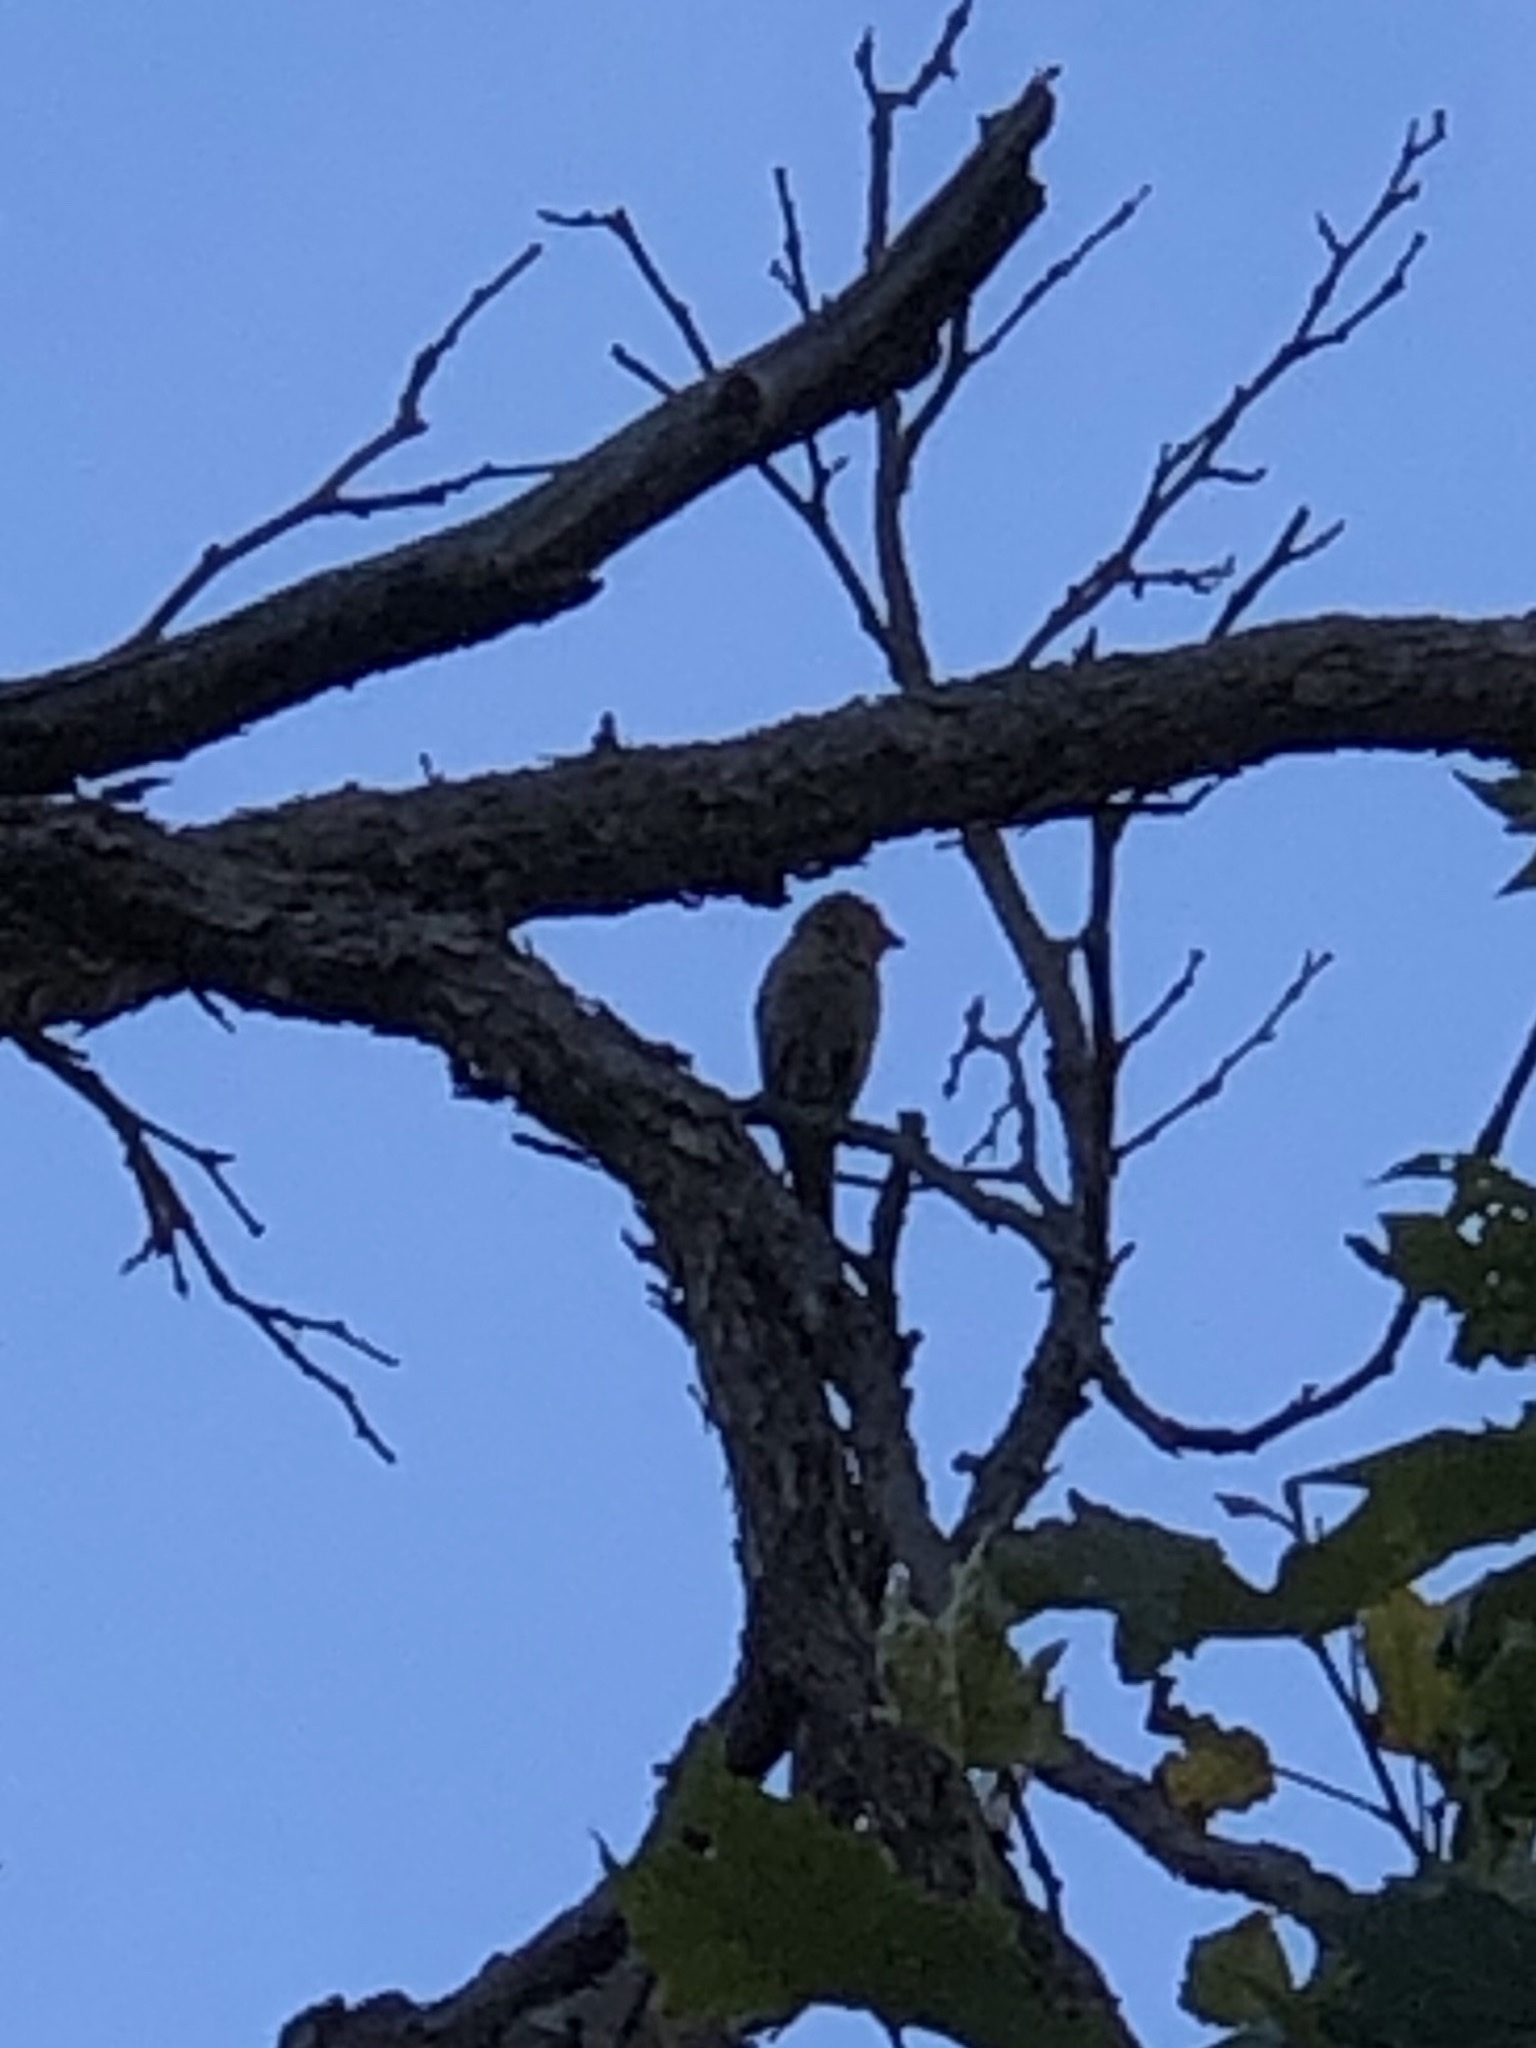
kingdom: Animalia
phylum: Chordata
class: Aves
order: Passeriformes
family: Fringillidae
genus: Haemorhous
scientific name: Haemorhous mexicanus
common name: House finch
